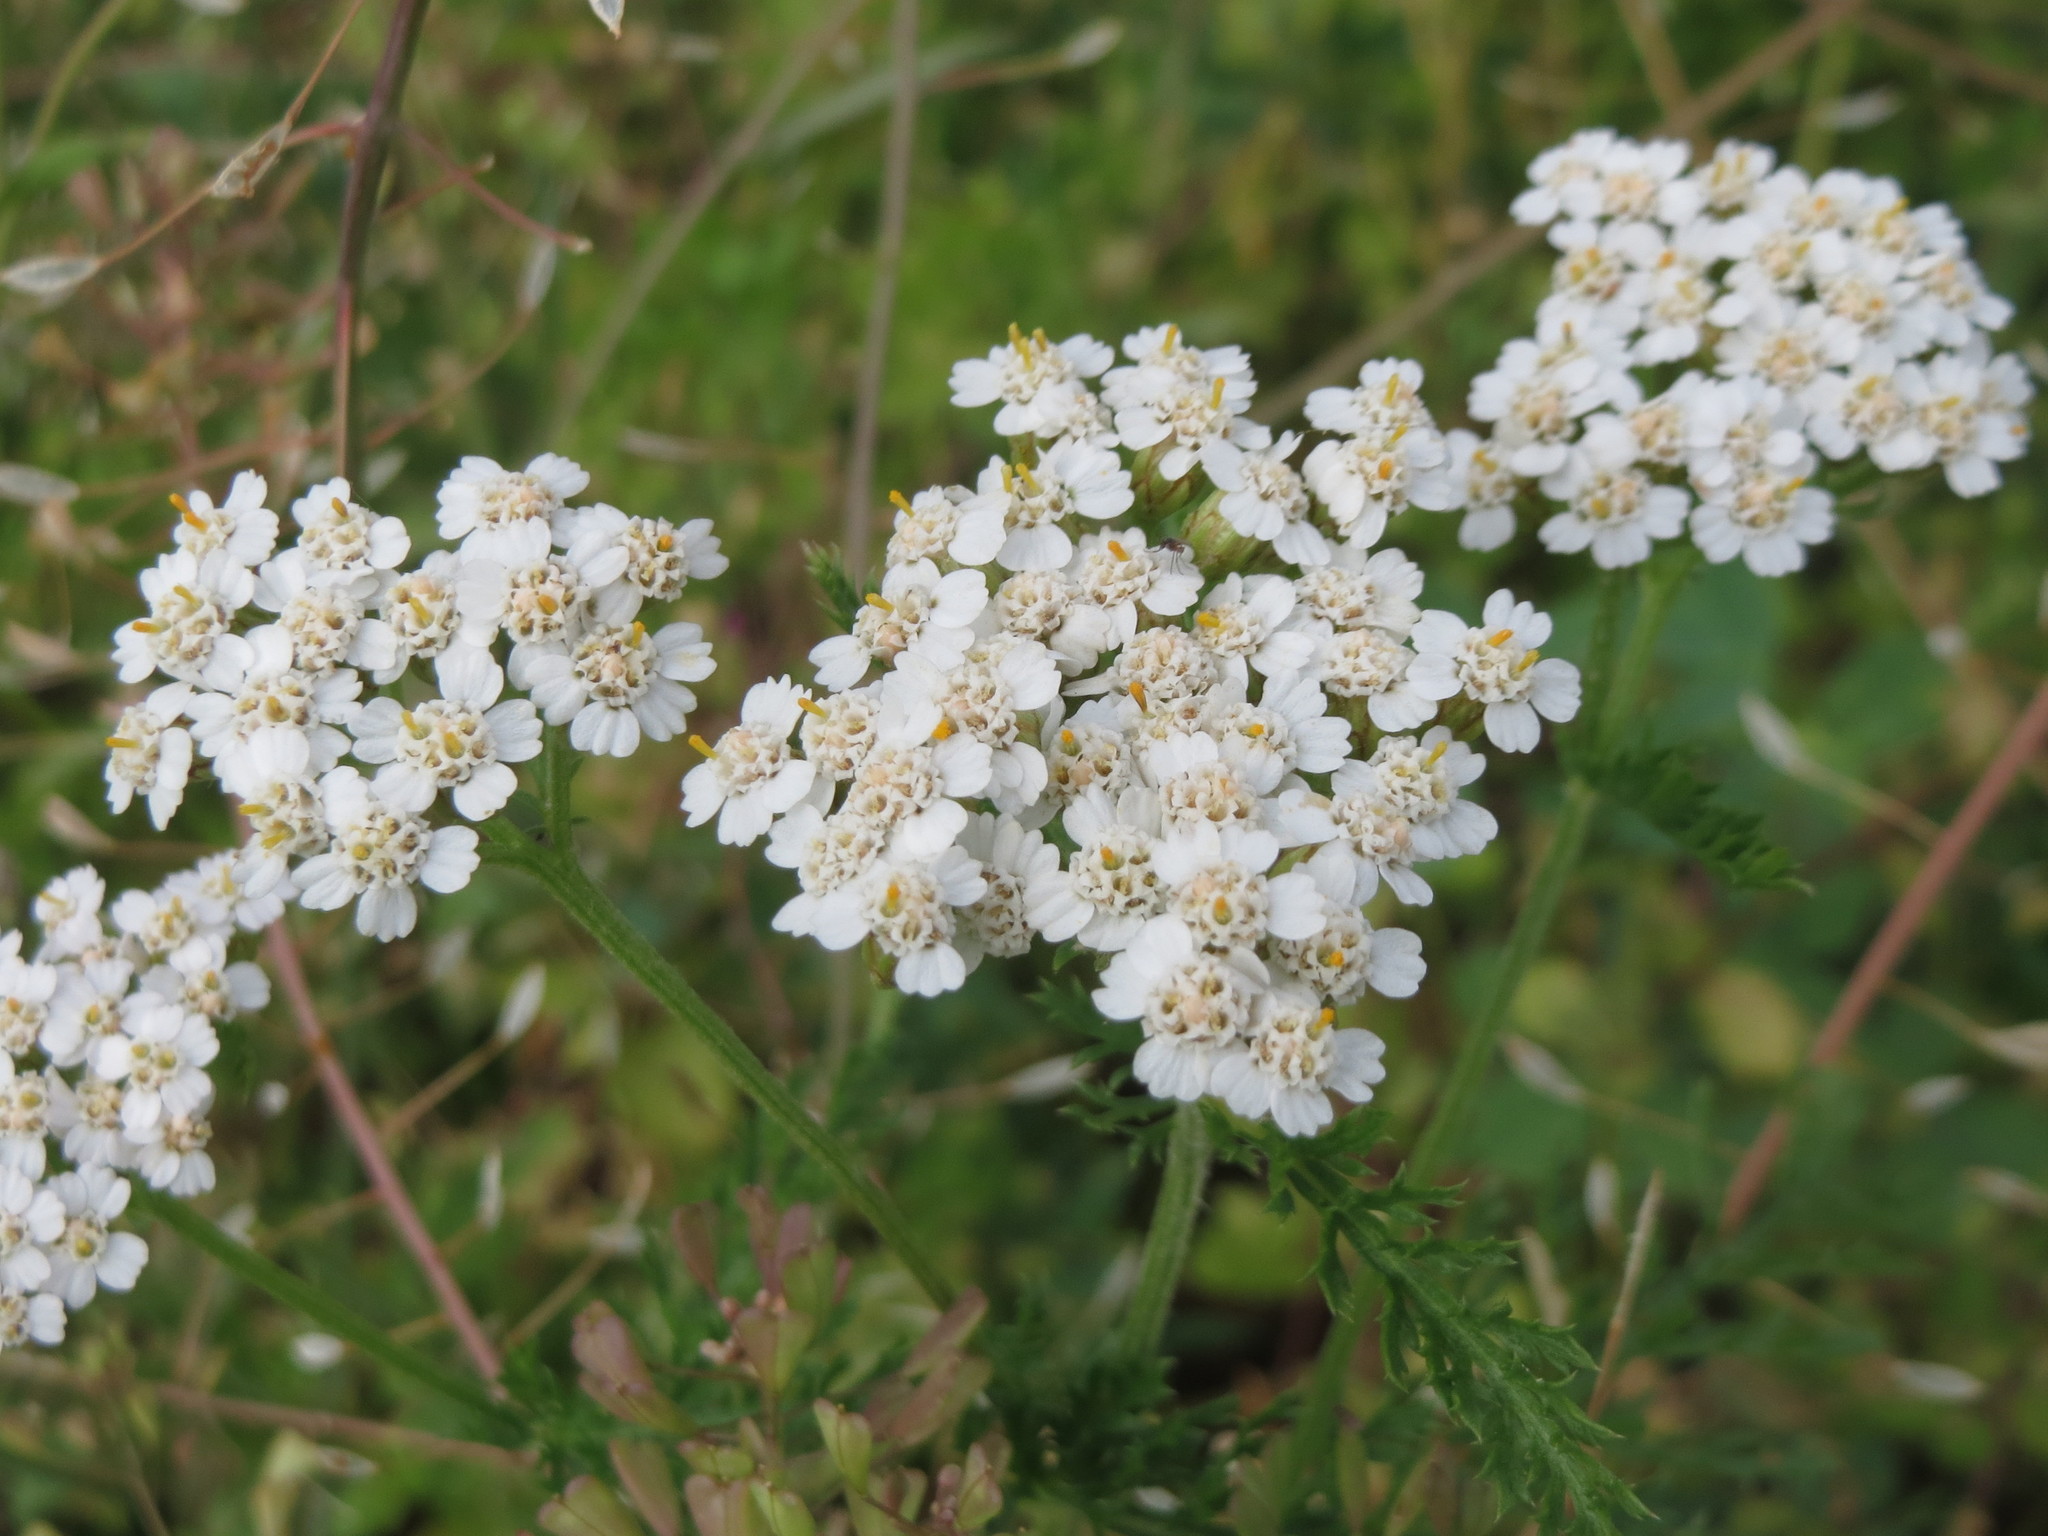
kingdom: Plantae
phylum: Tracheophyta
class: Magnoliopsida
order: Asterales
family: Asteraceae
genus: Achillea
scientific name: Achillea millefolium
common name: Yarrow
